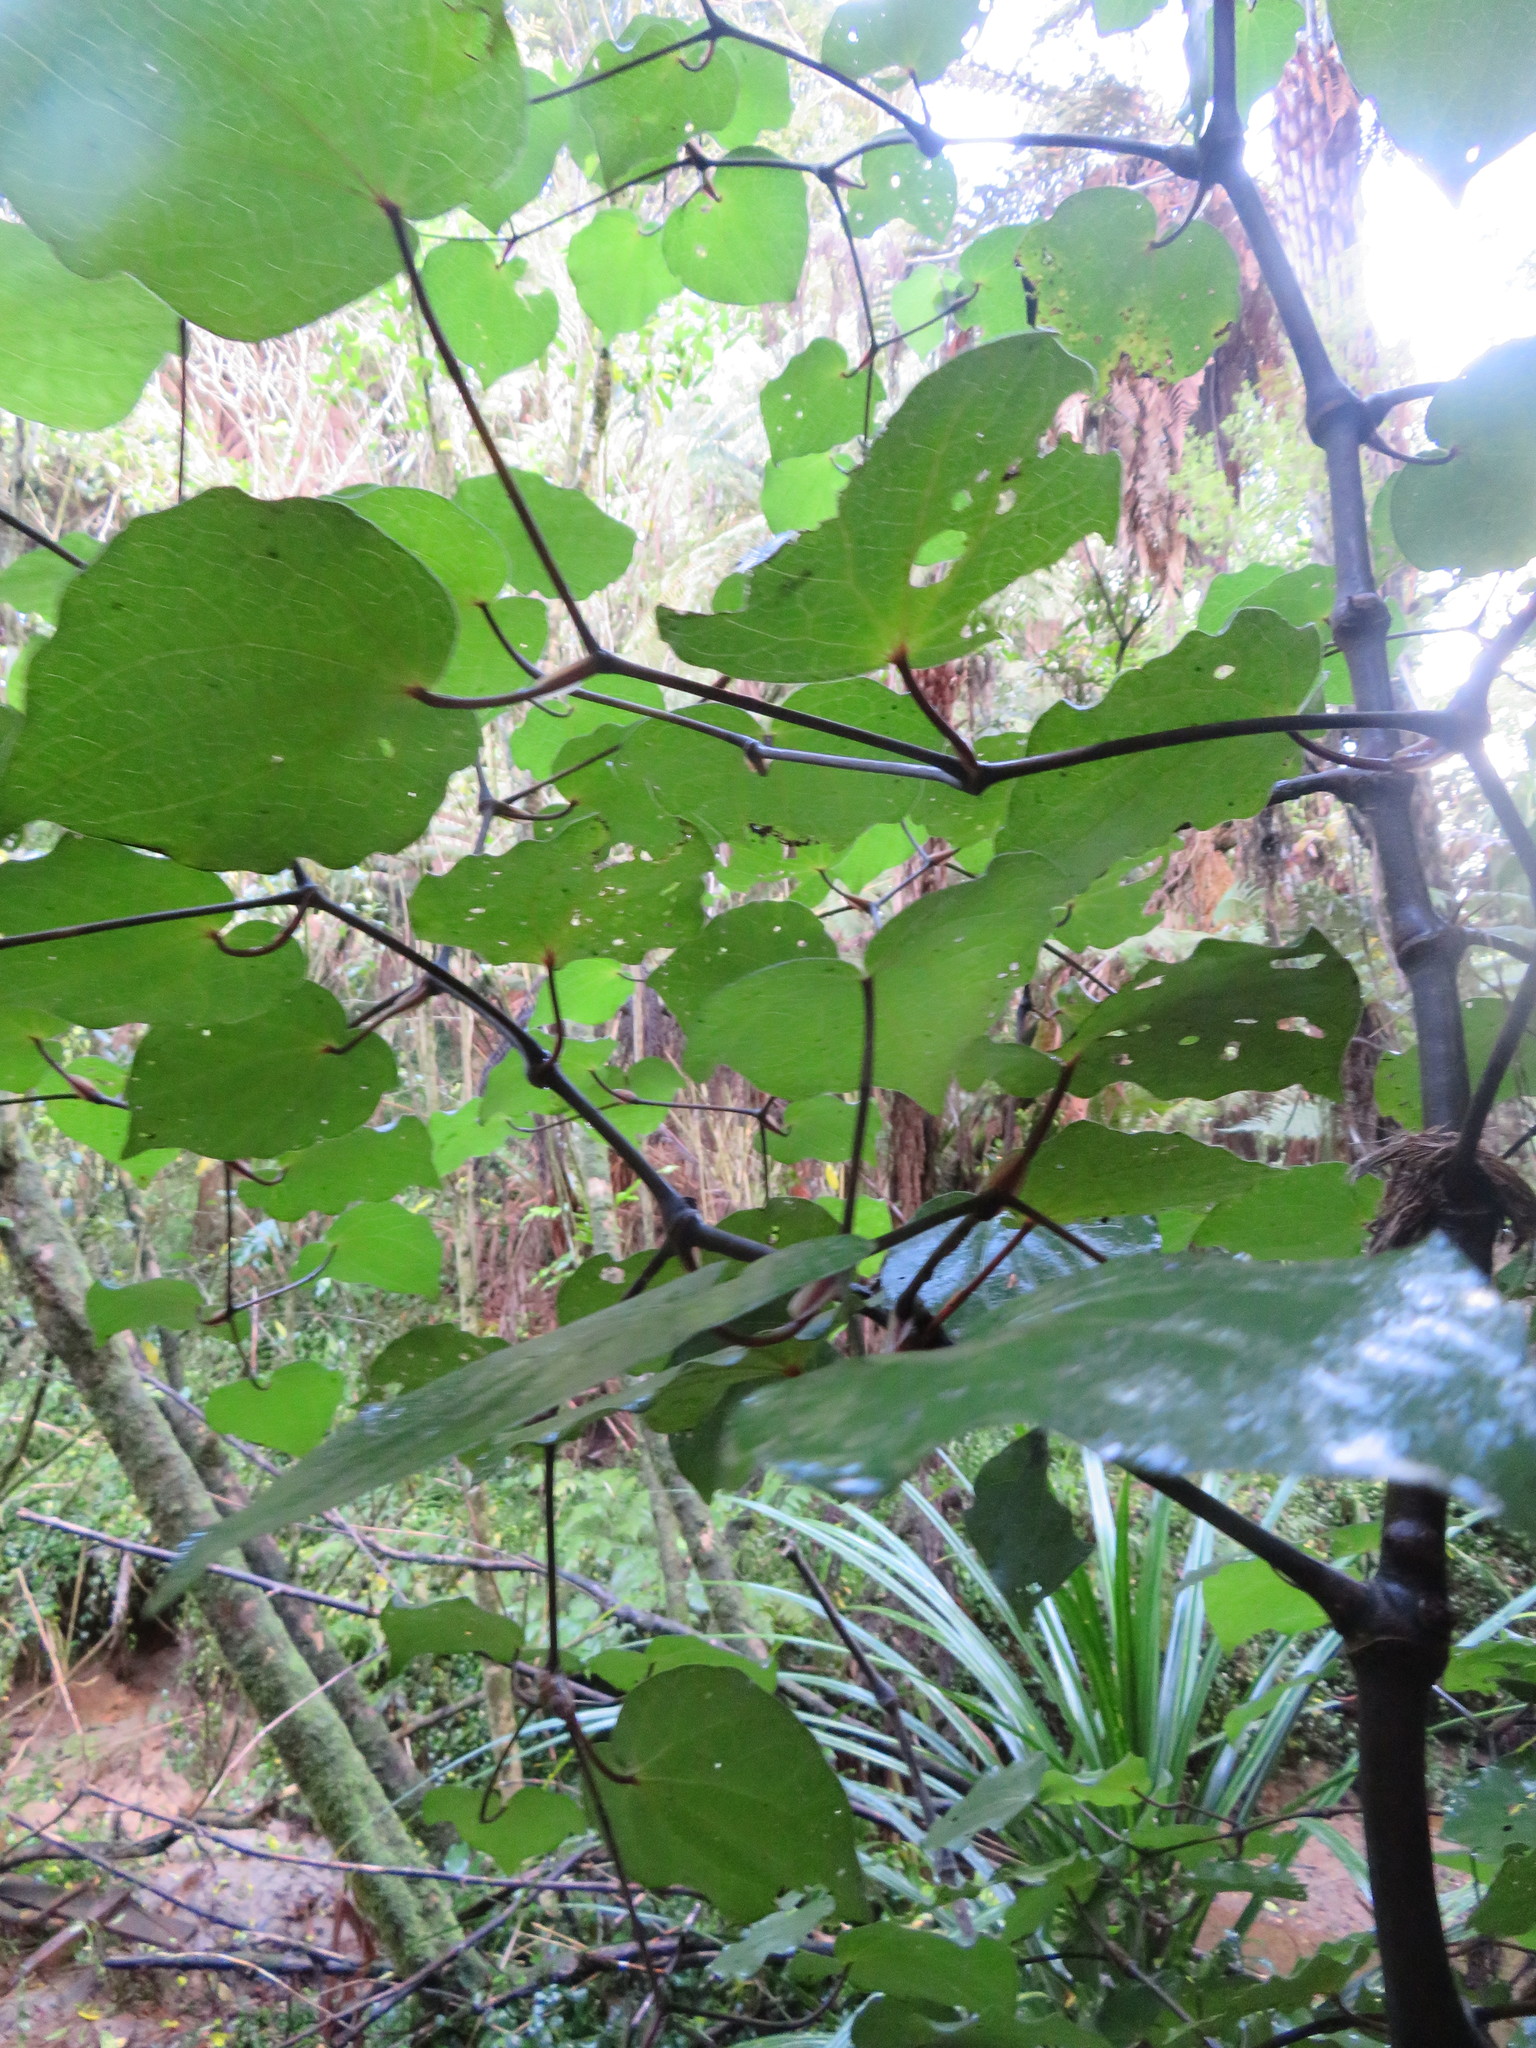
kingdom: Plantae
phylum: Tracheophyta
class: Magnoliopsida
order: Piperales
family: Piperaceae
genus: Macropiper
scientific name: Macropiper excelsum
